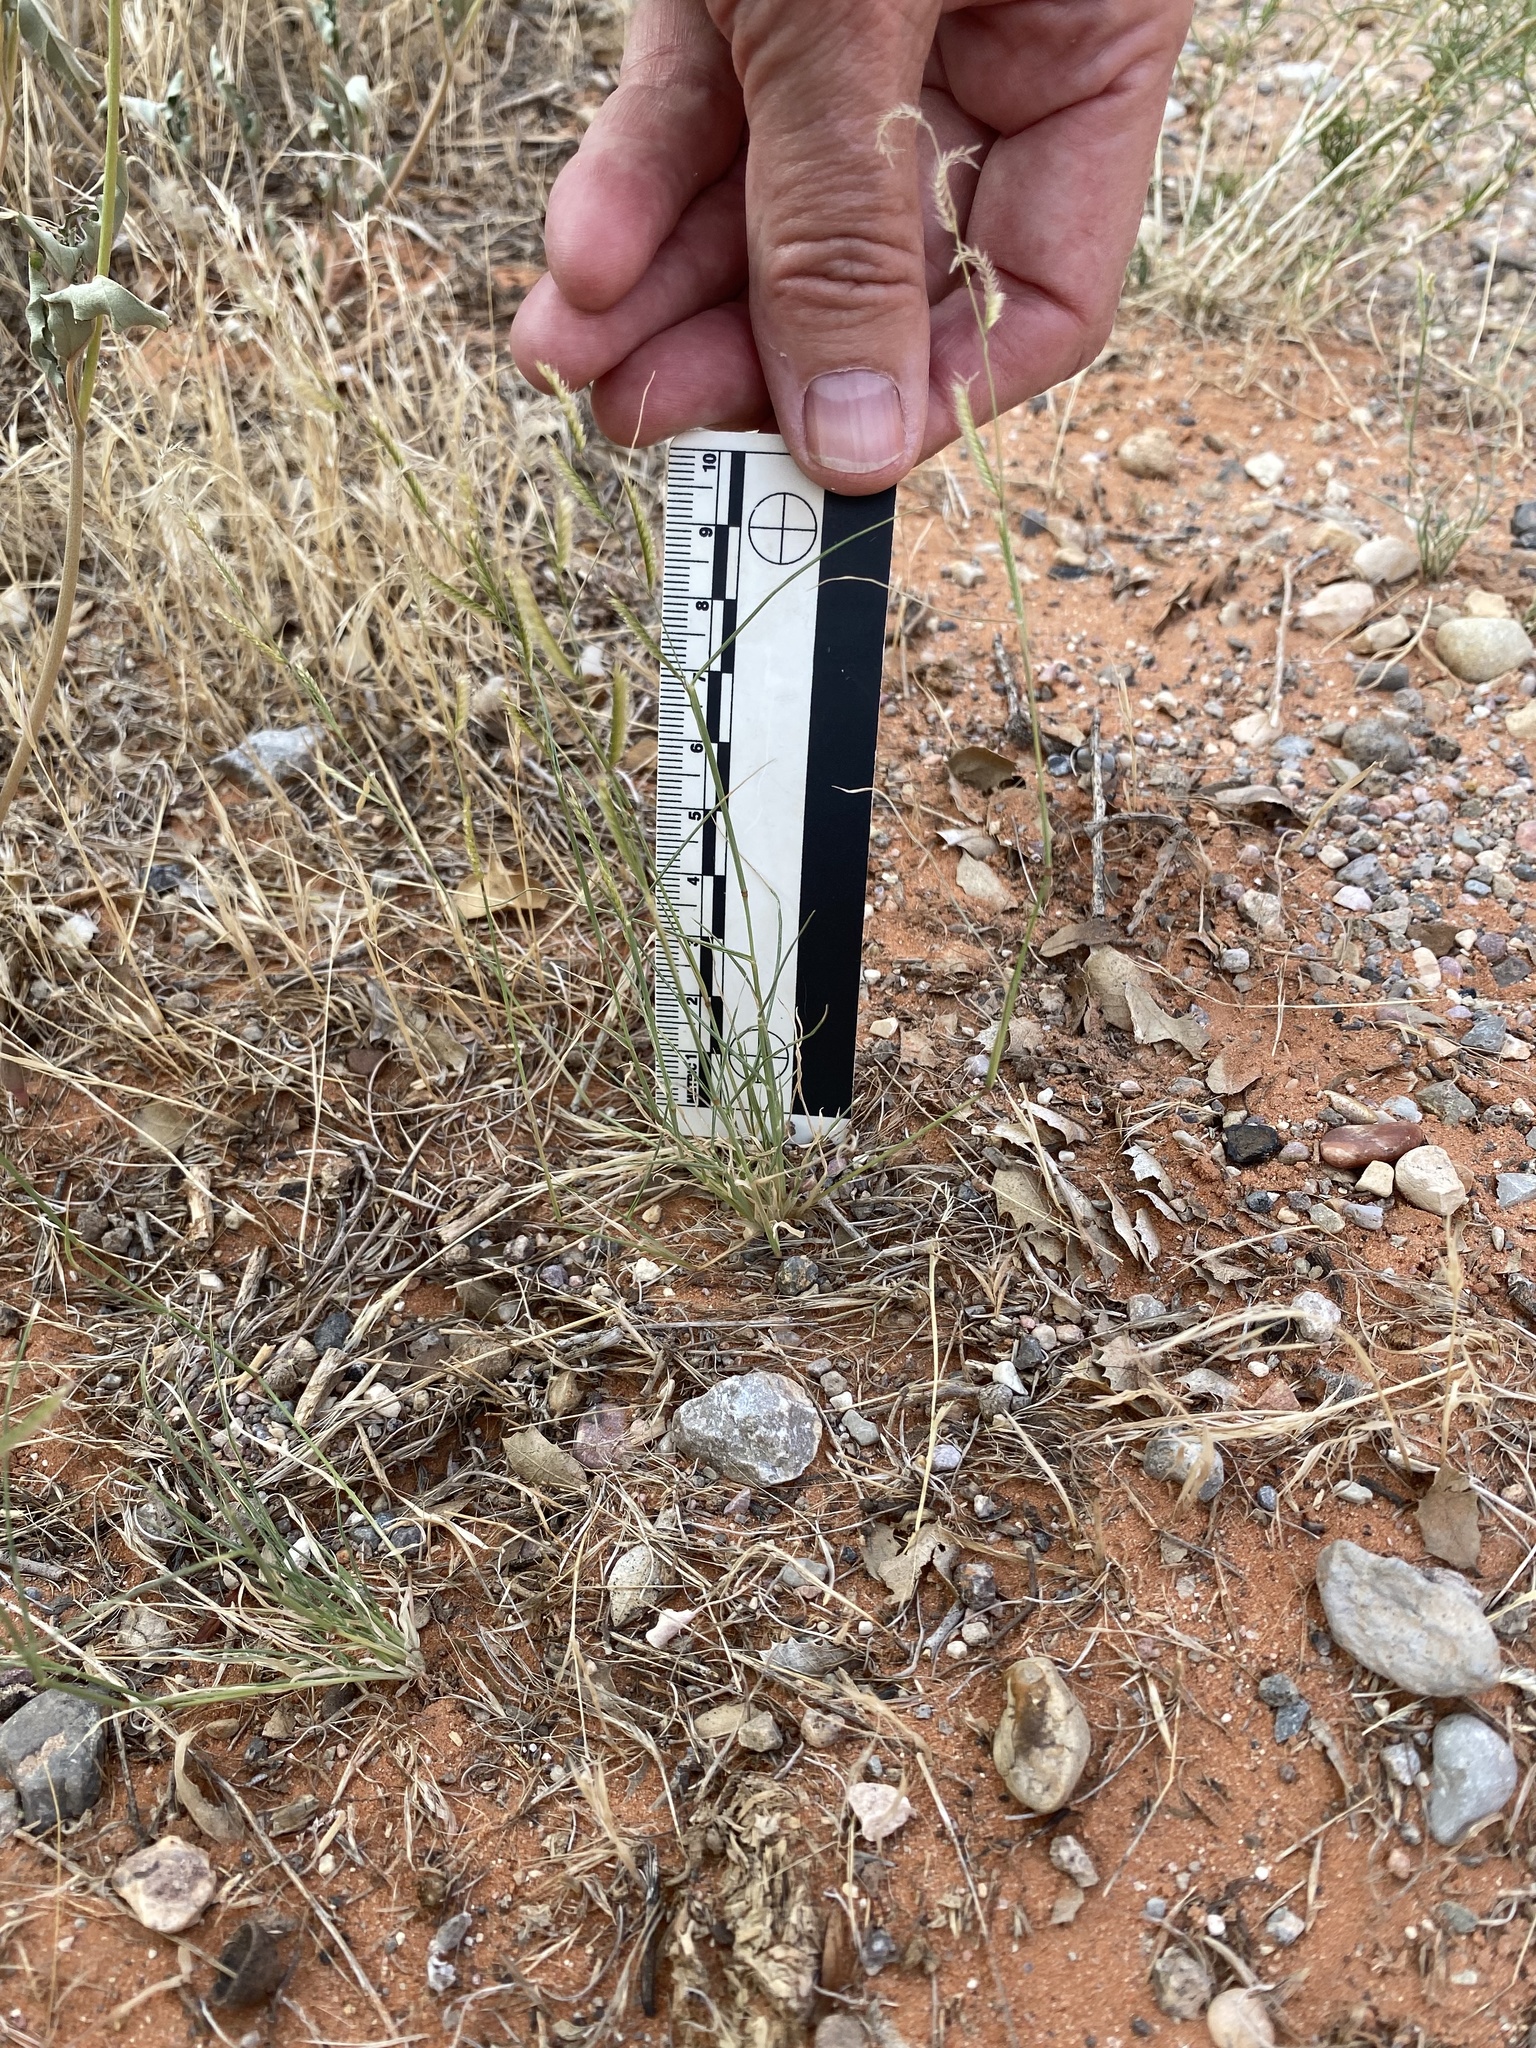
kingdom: Plantae
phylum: Tracheophyta
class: Liliopsida
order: Poales
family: Poaceae
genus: Bouteloua
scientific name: Bouteloua barbata
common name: Six-weeks grama
